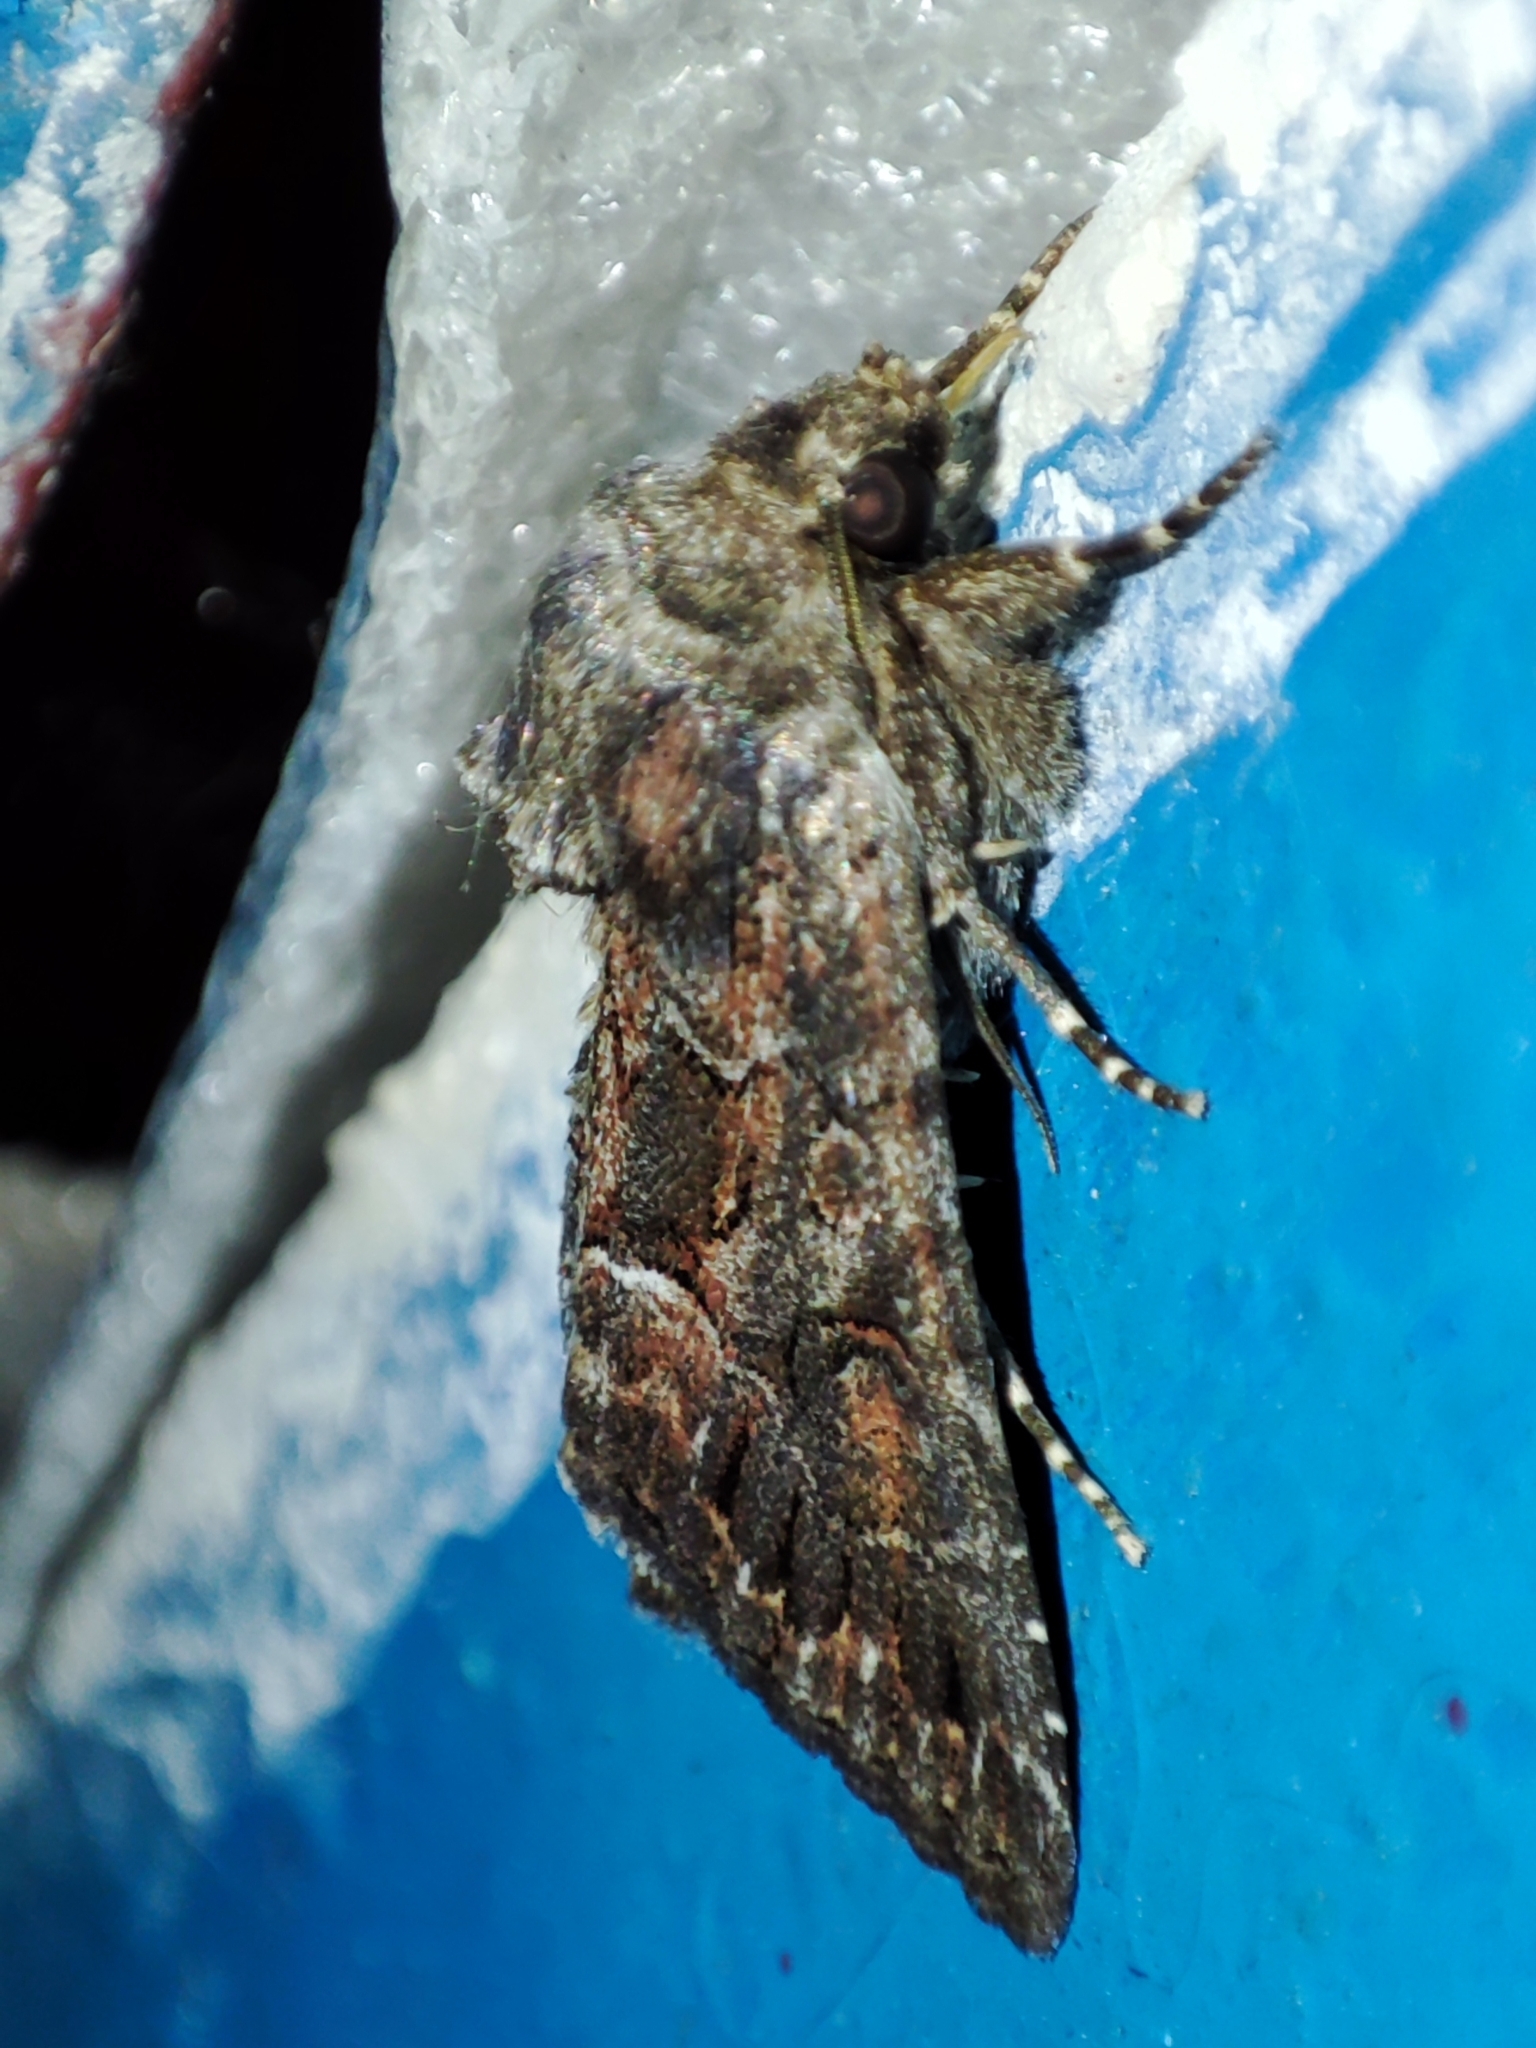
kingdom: Animalia
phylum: Arthropoda
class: Insecta
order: Lepidoptera
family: Noctuidae
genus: Thalpophila
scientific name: Thalpophila matura
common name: Straw underwing
